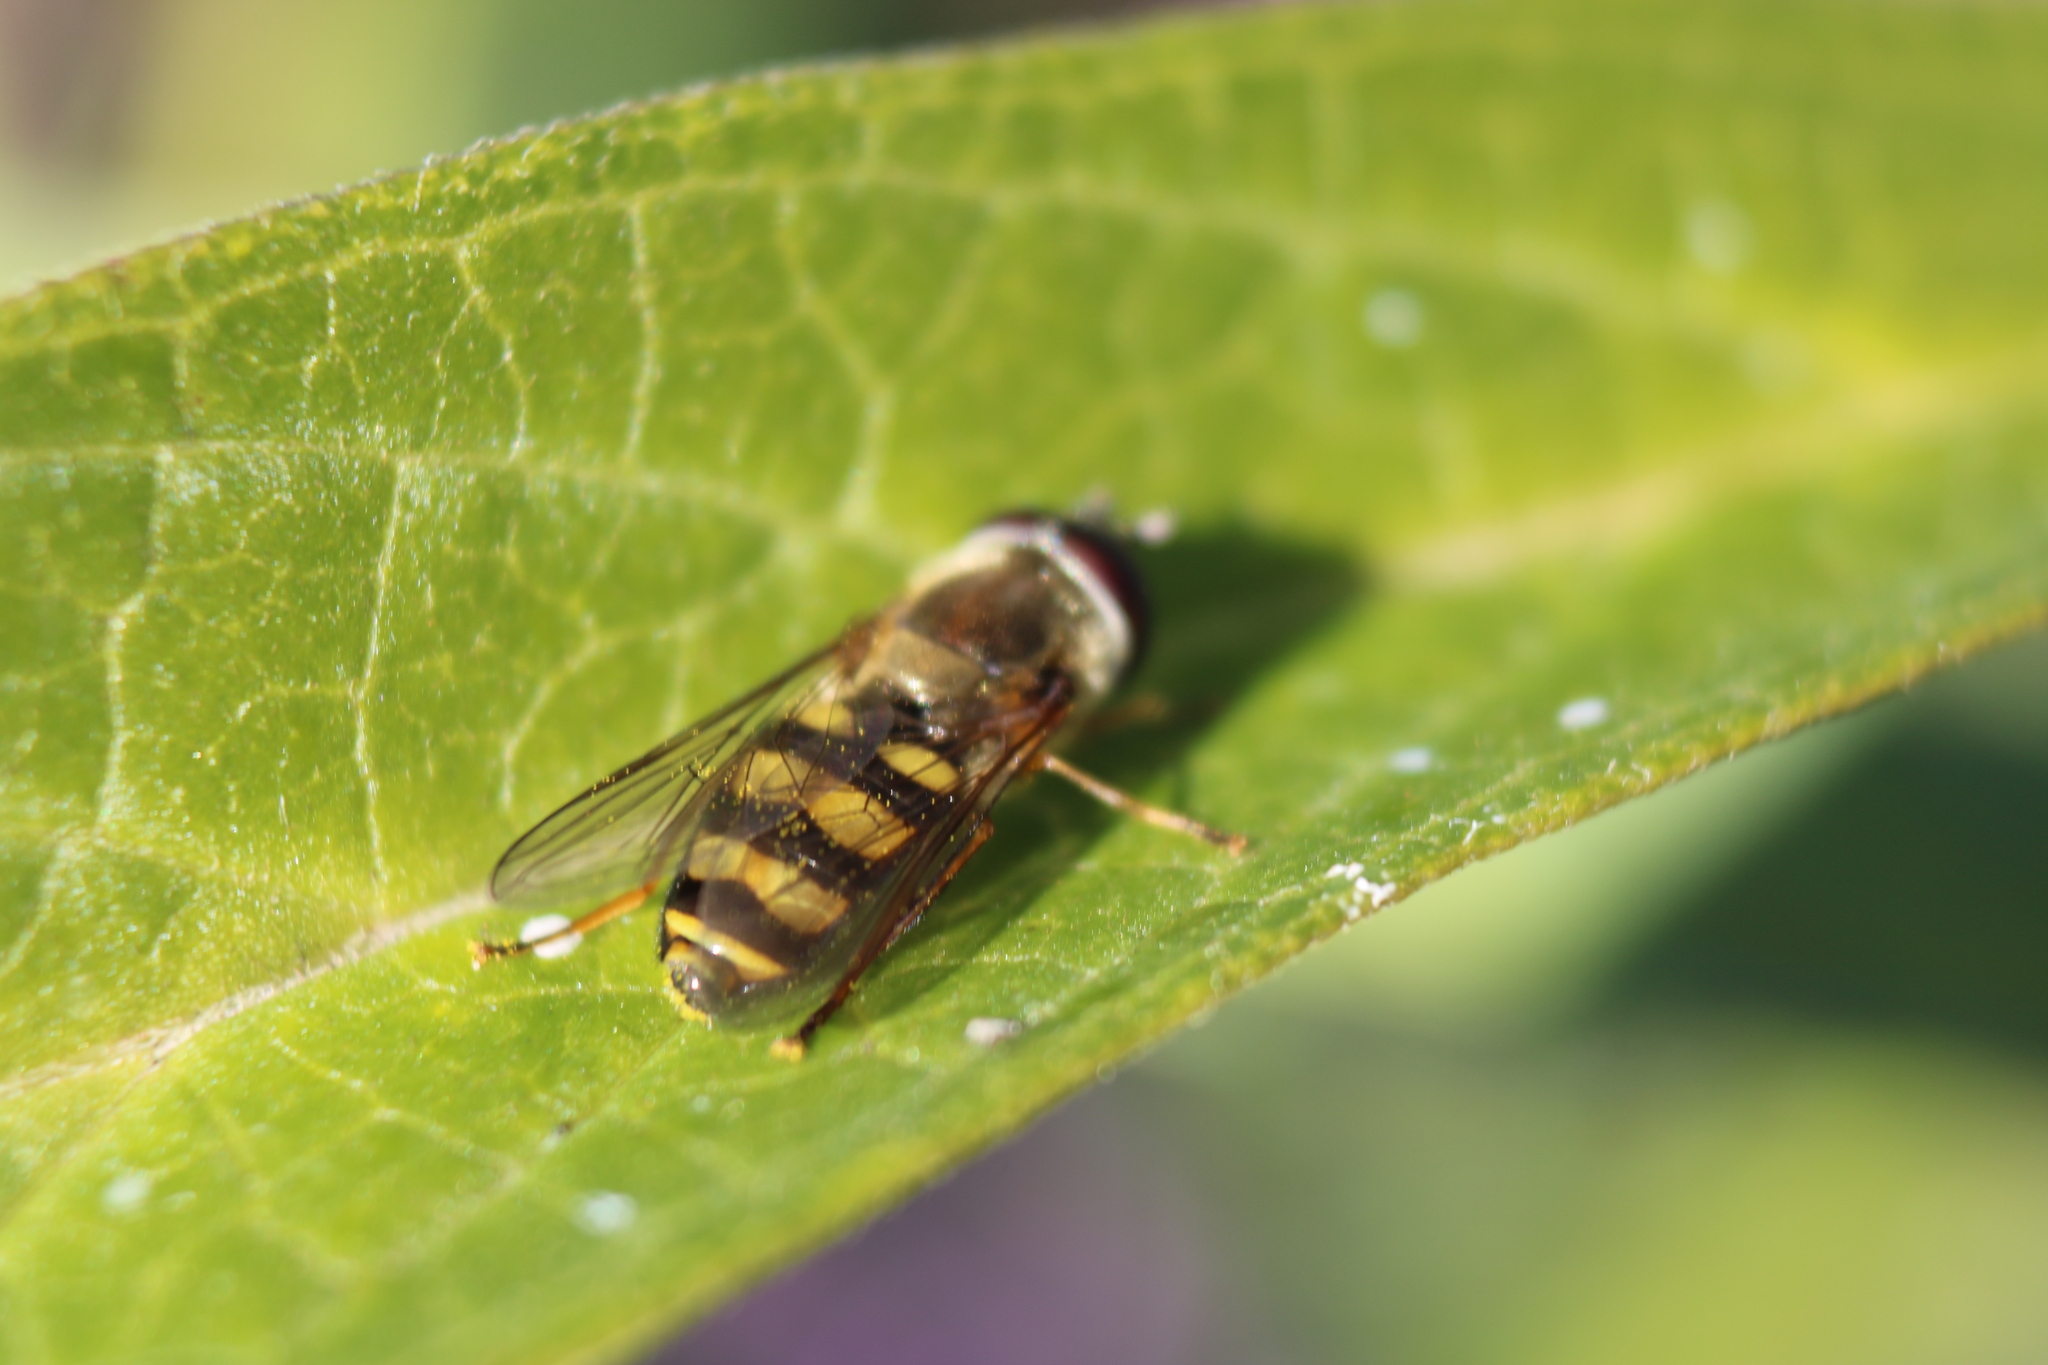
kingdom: Animalia
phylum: Arthropoda
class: Insecta
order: Diptera
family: Syrphidae
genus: Eupeodes
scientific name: Eupeodes
